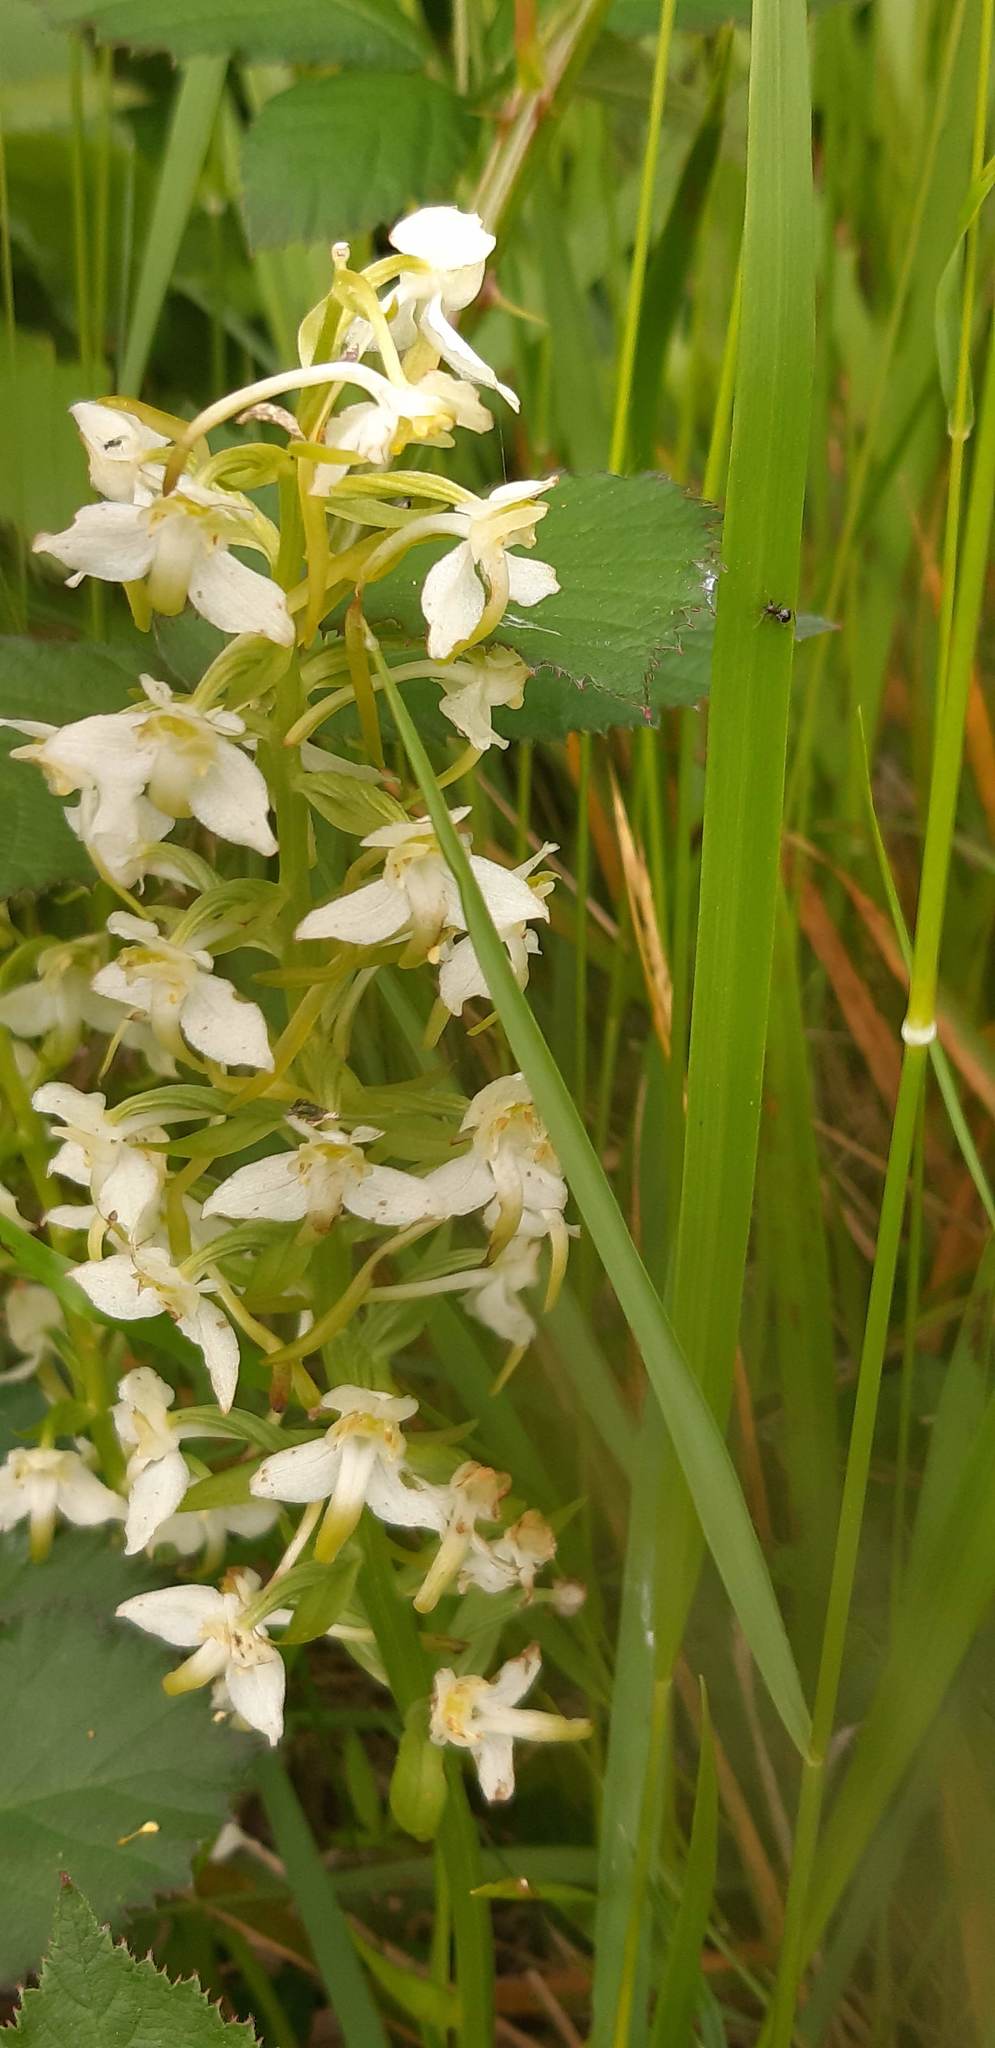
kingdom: Plantae
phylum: Tracheophyta
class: Liliopsida
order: Asparagales
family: Orchidaceae
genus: Platanthera
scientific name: Platanthera chlorantha
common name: Greater butterfly-orchid
